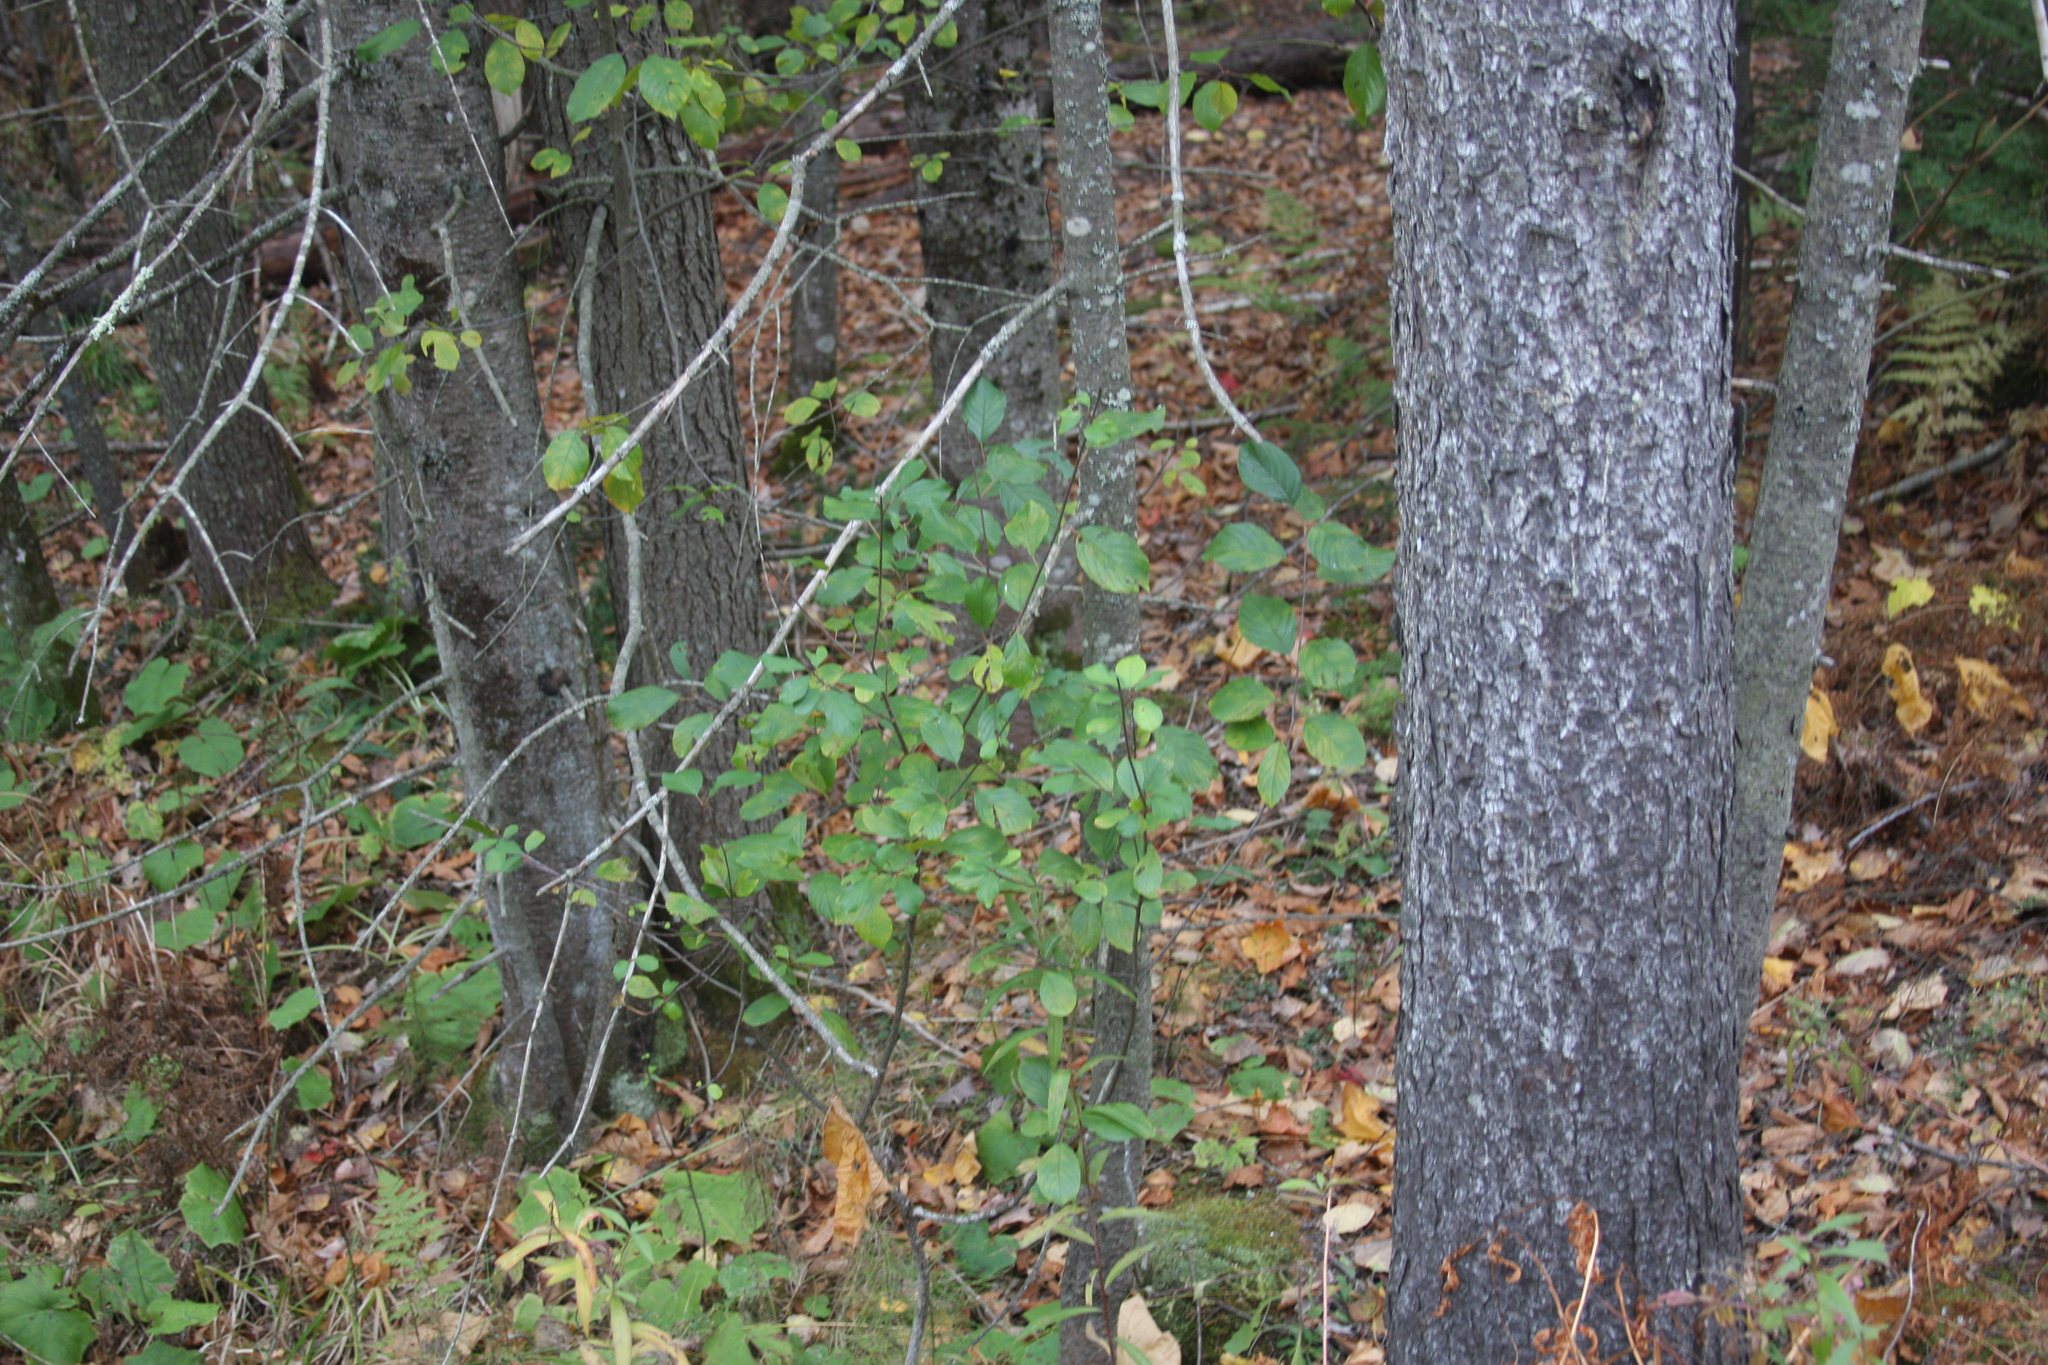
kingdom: Plantae
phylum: Tracheophyta
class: Magnoliopsida
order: Rosales
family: Rhamnaceae
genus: Frangula
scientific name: Frangula alnus
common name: Alder buckthorn
